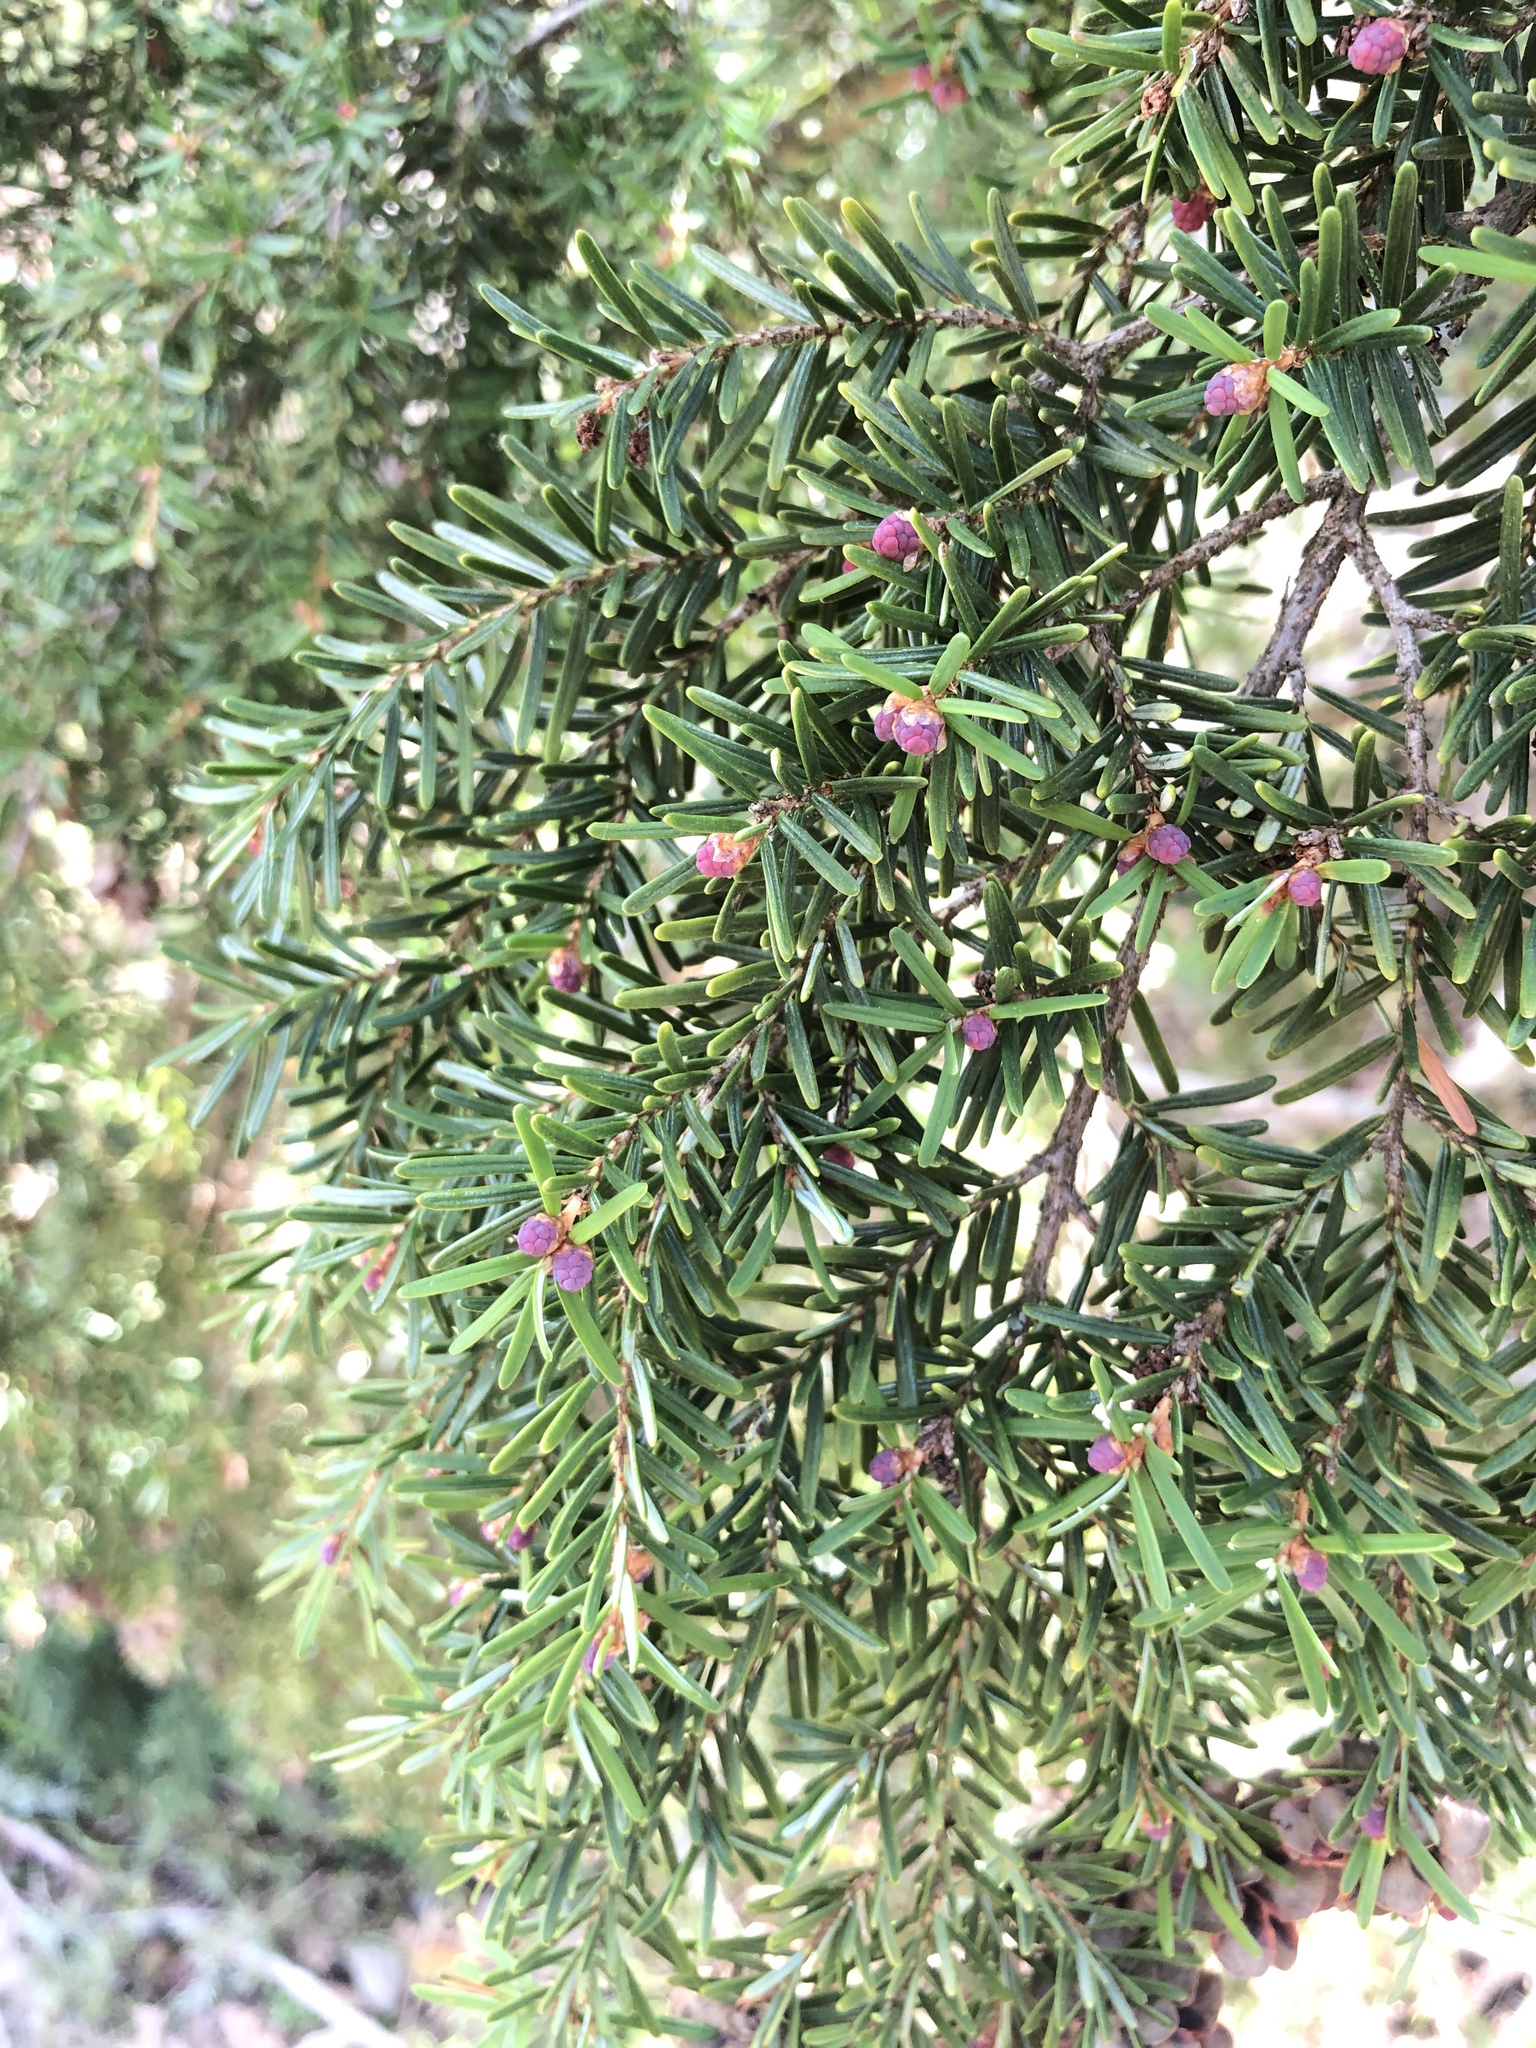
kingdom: Plantae
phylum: Tracheophyta
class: Pinopsida
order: Pinales
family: Pinaceae
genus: Tsuga
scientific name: Tsuga heterophylla
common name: Western hemlock
